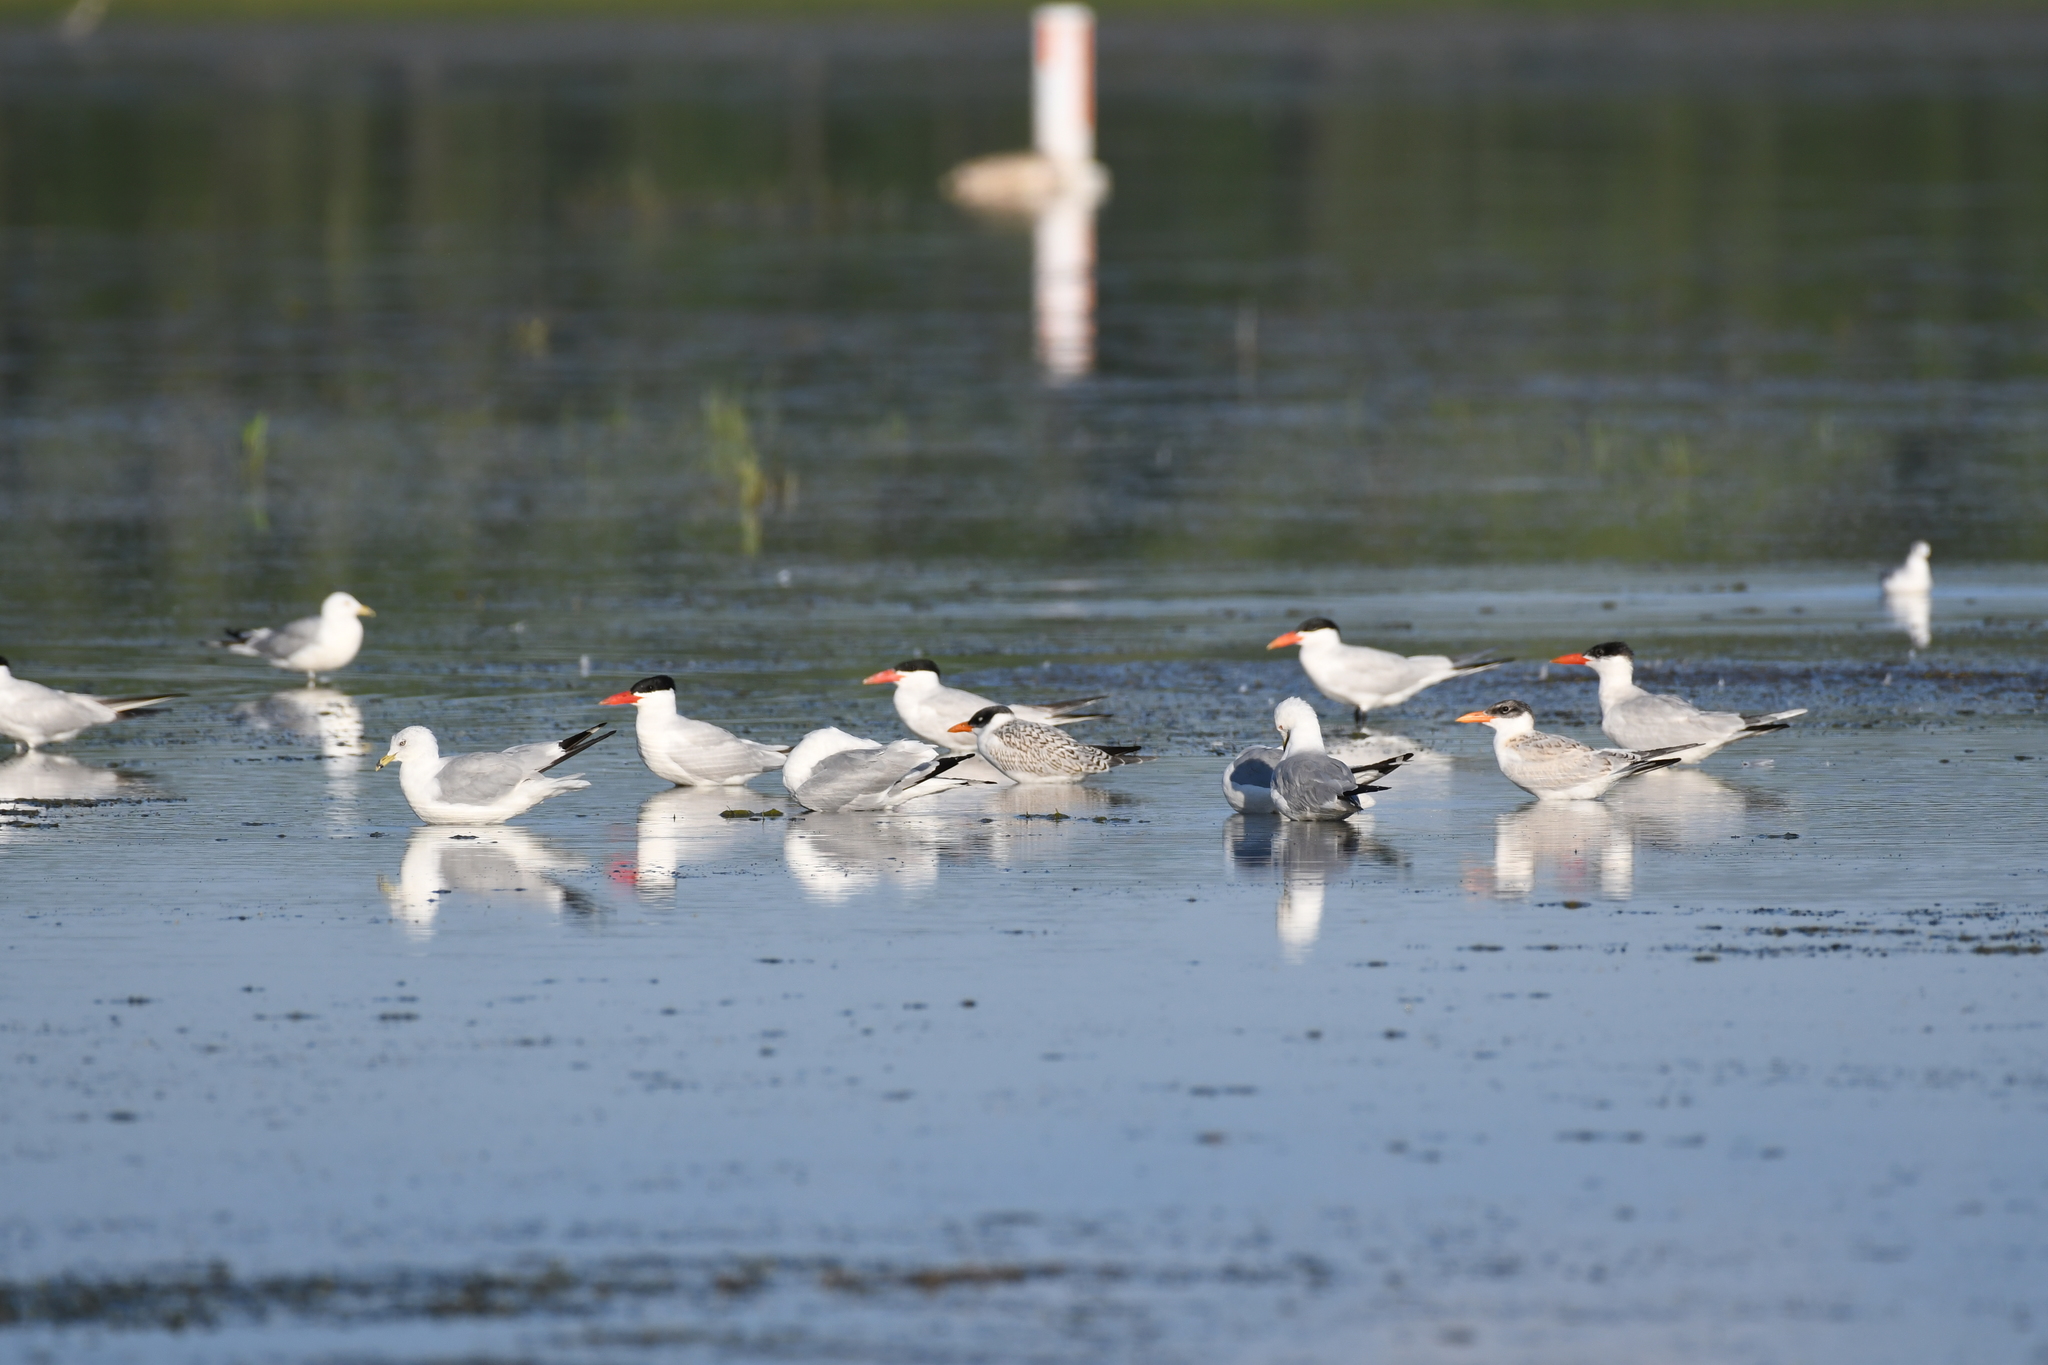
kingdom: Animalia
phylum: Chordata
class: Aves
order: Charadriiformes
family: Laridae
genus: Hydroprogne
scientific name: Hydroprogne caspia
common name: Caspian tern
